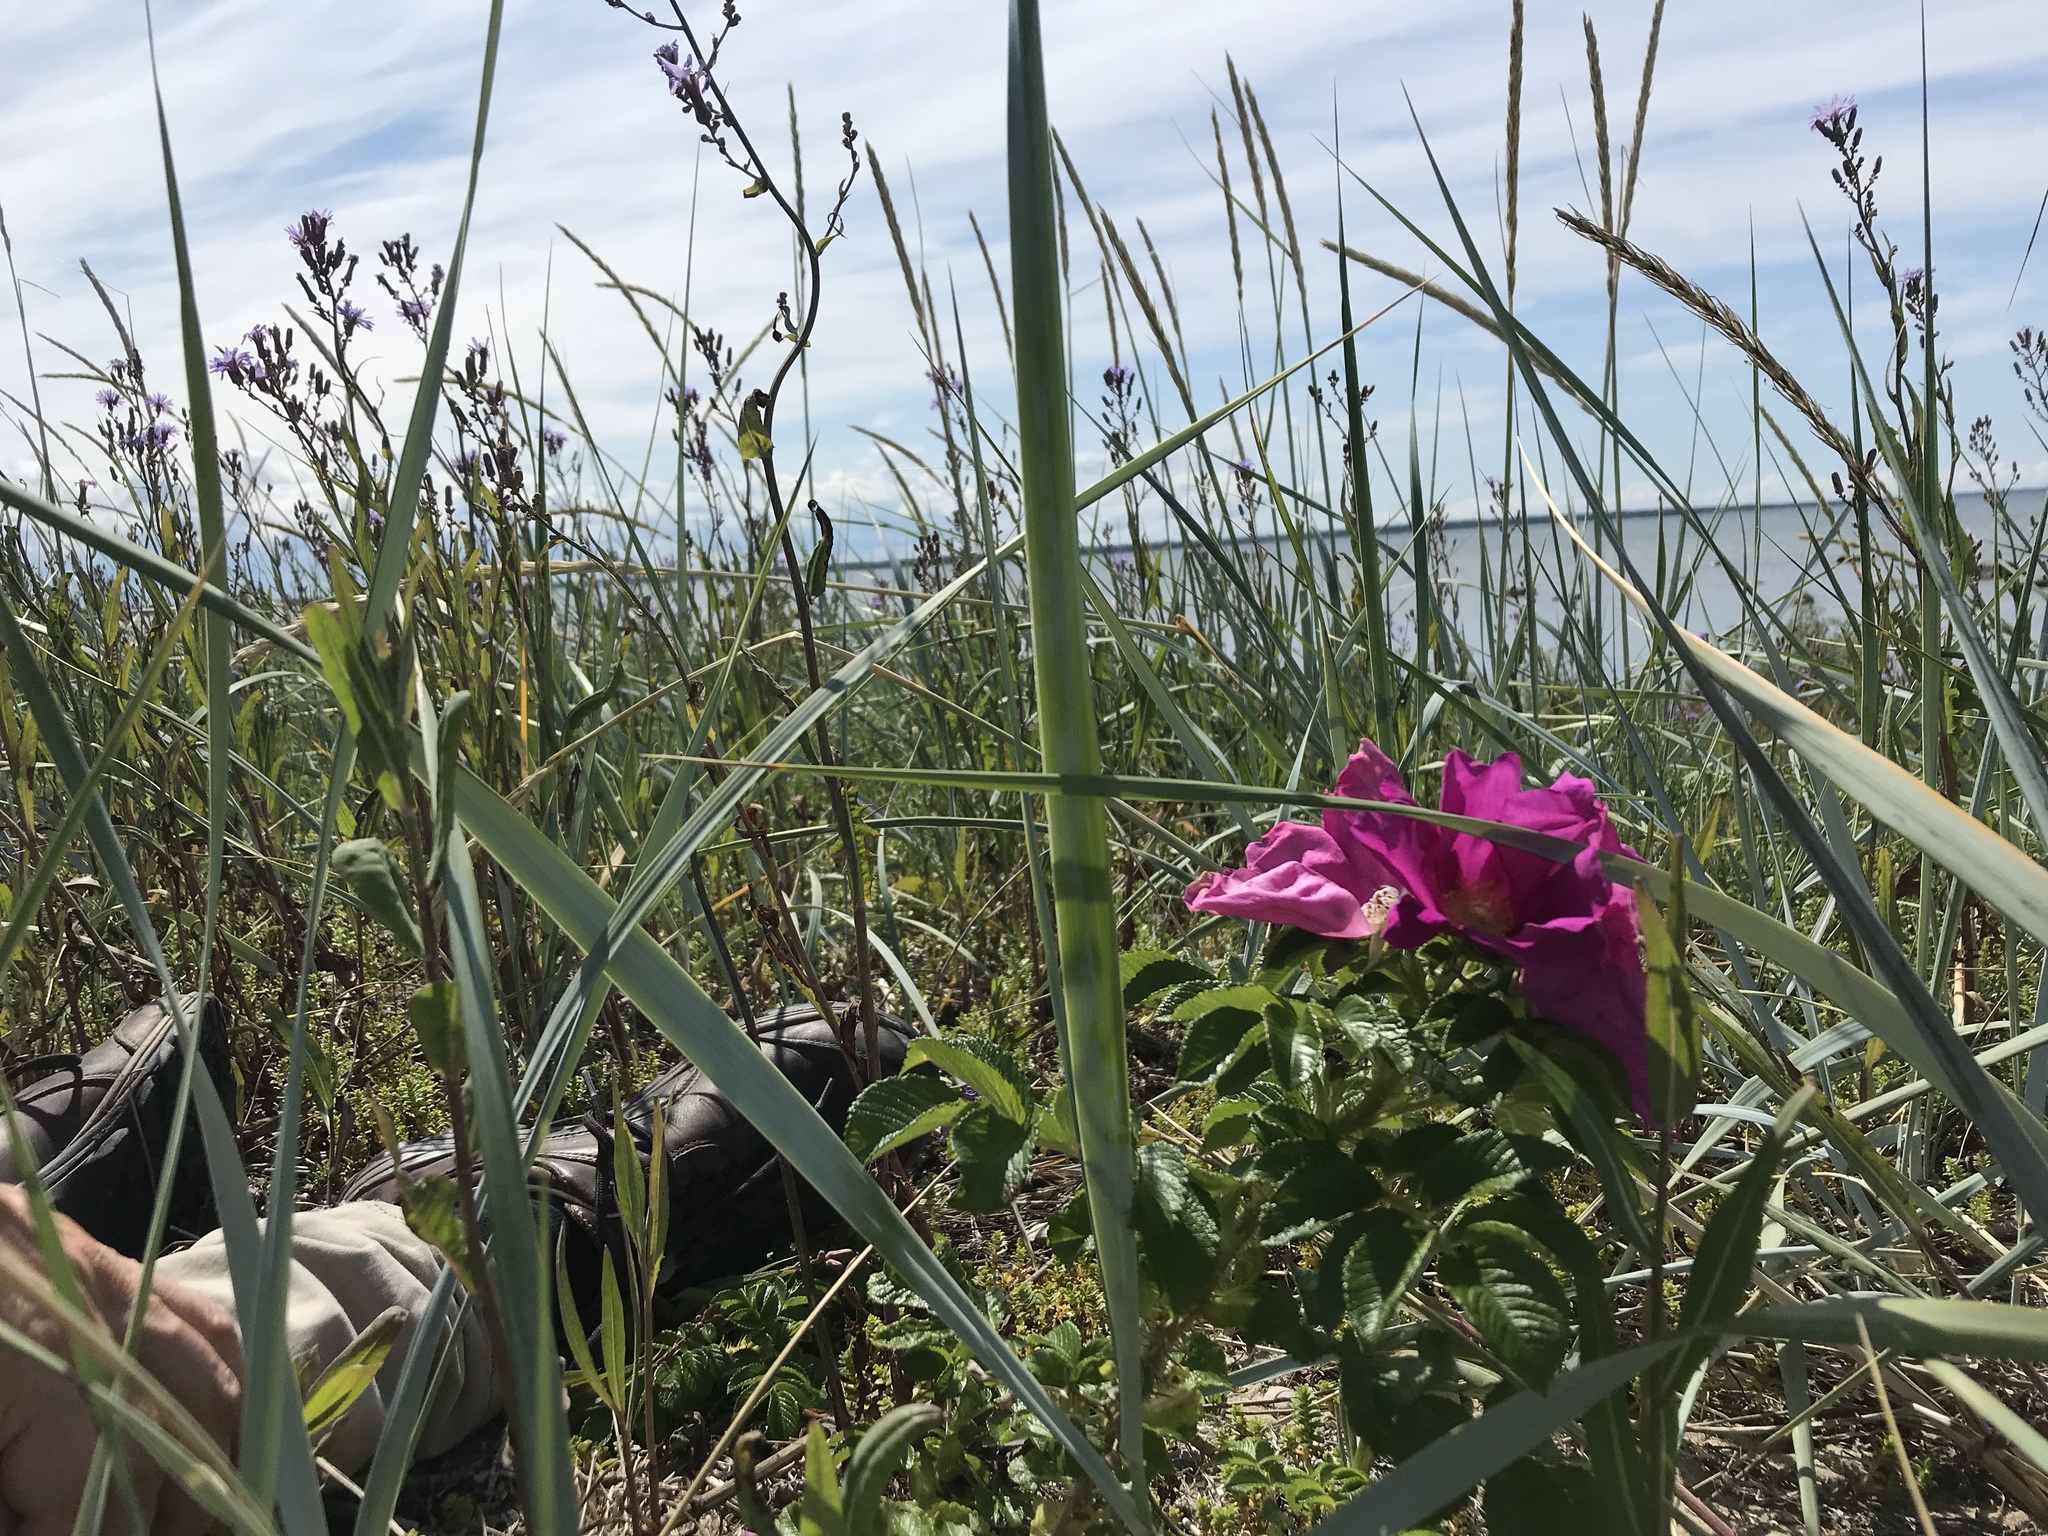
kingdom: Plantae
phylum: Tracheophyta
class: Magnoliopsida
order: Rosales
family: Rosaceae
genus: Rosa
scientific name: Rosa rugosa
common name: Japanese rose
